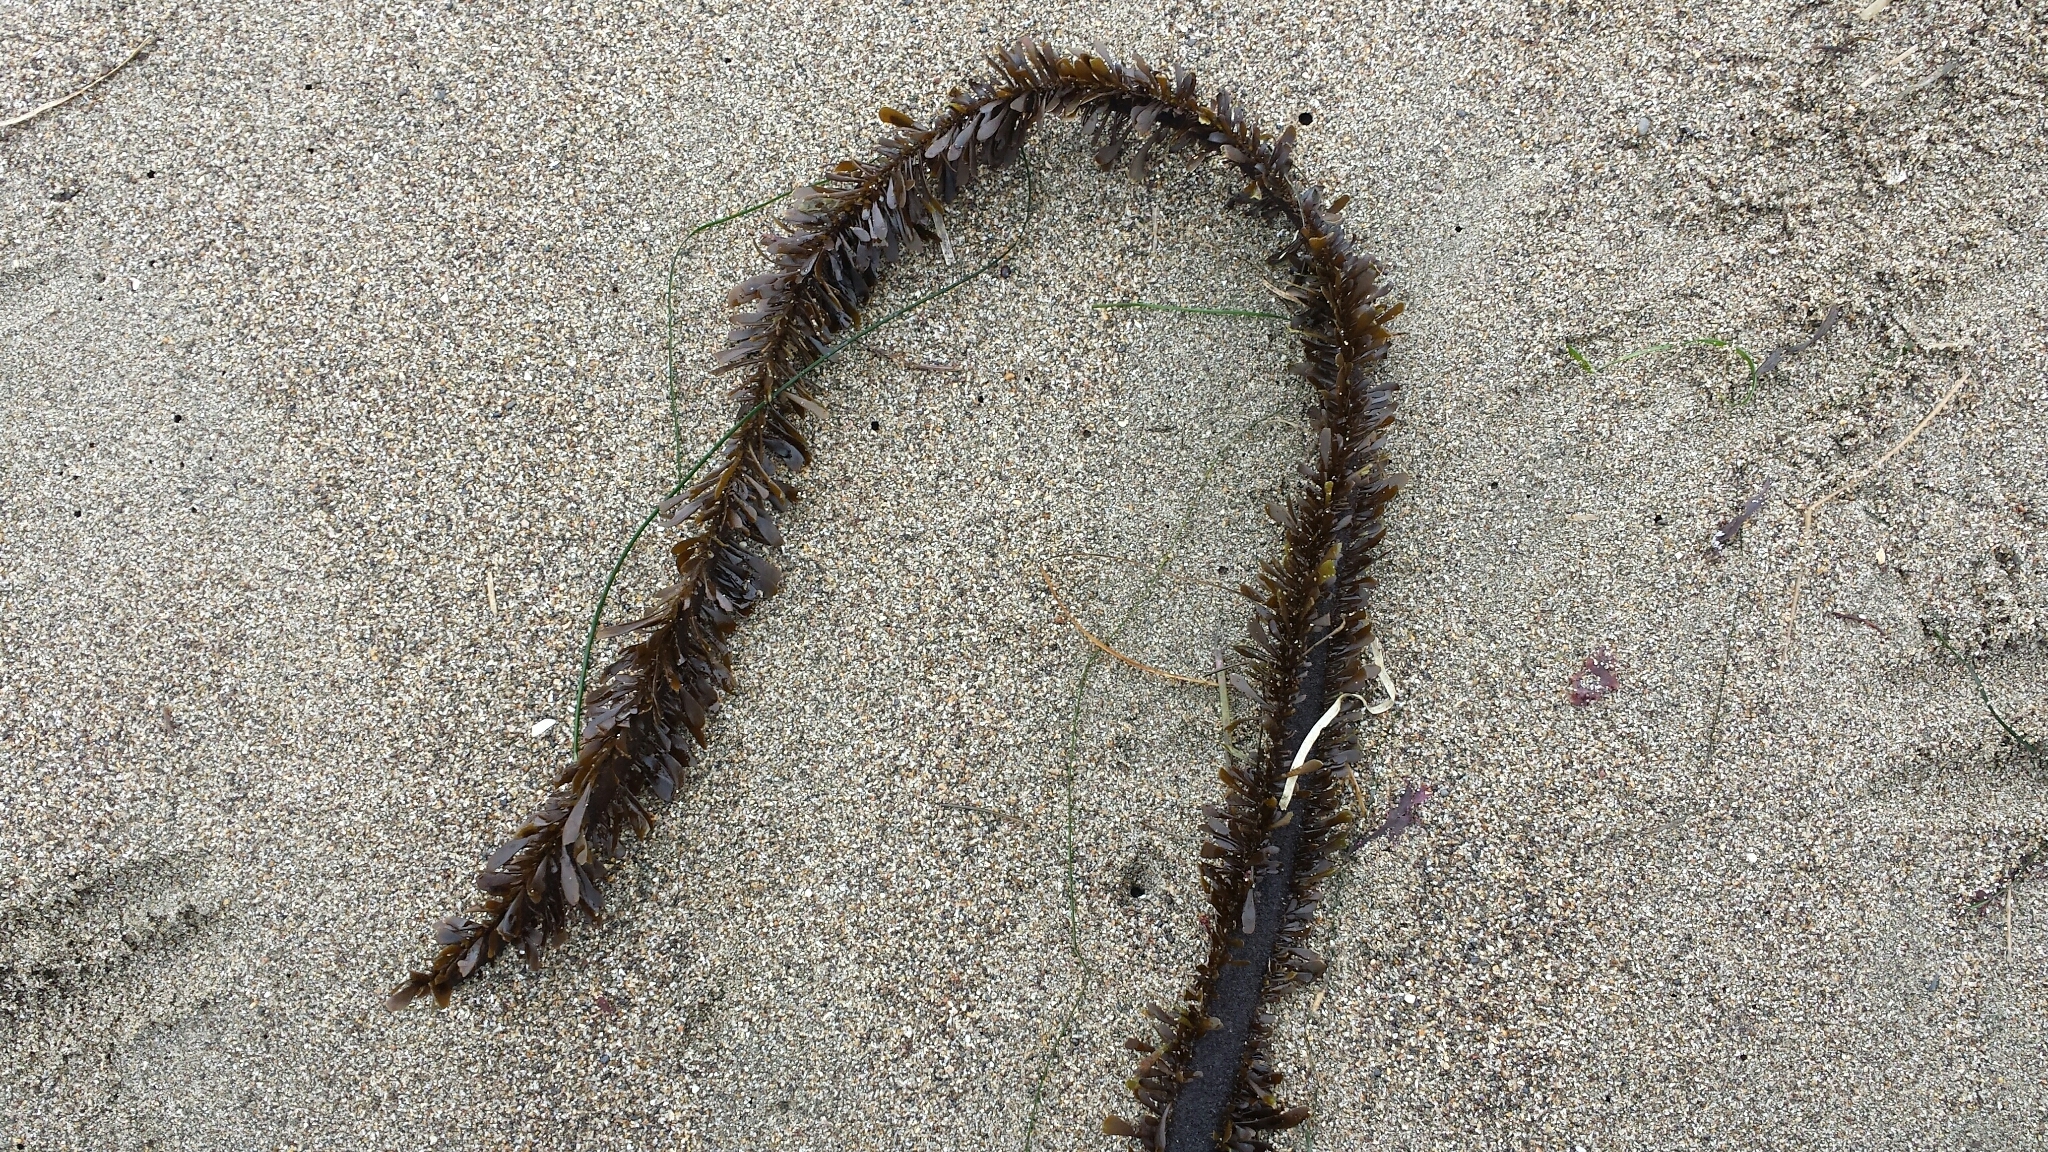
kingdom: Chromista
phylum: Ochrophyta
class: Phaeophyceae
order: Laminariales
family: Lessoniaceae
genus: Egregia
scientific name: Egregia menziesii
